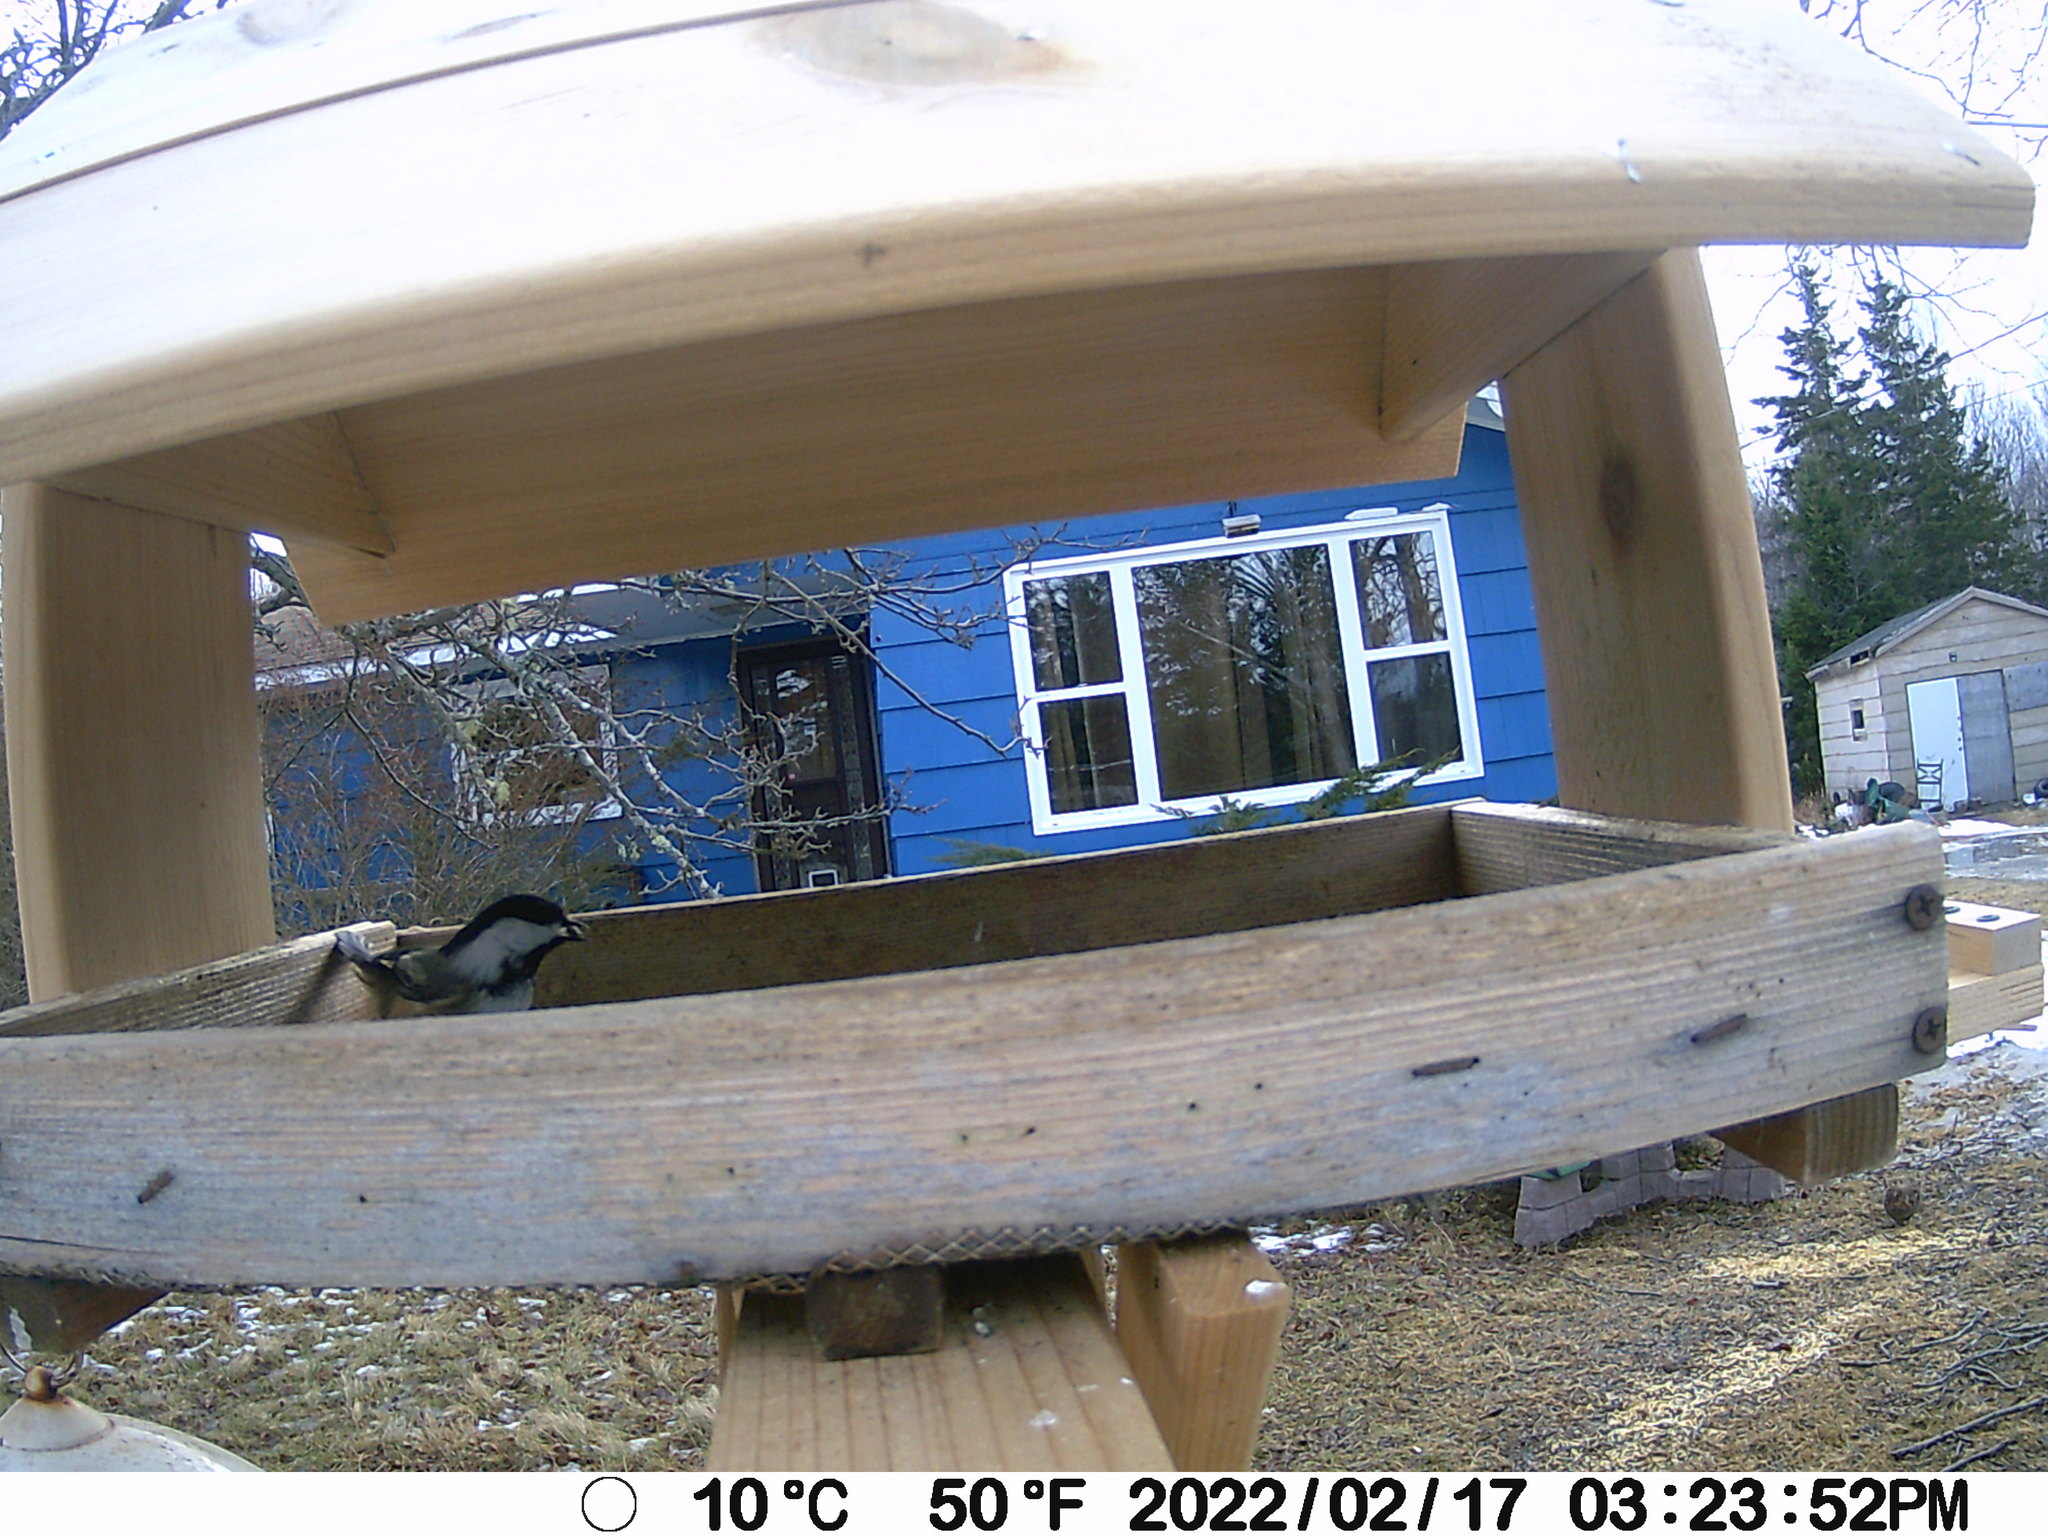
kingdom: Animalia
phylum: Chordata
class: Aves
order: Galliformes
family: Phasianidae
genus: Bonasa
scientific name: Bonasa umbellus
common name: Ruffed grouse
